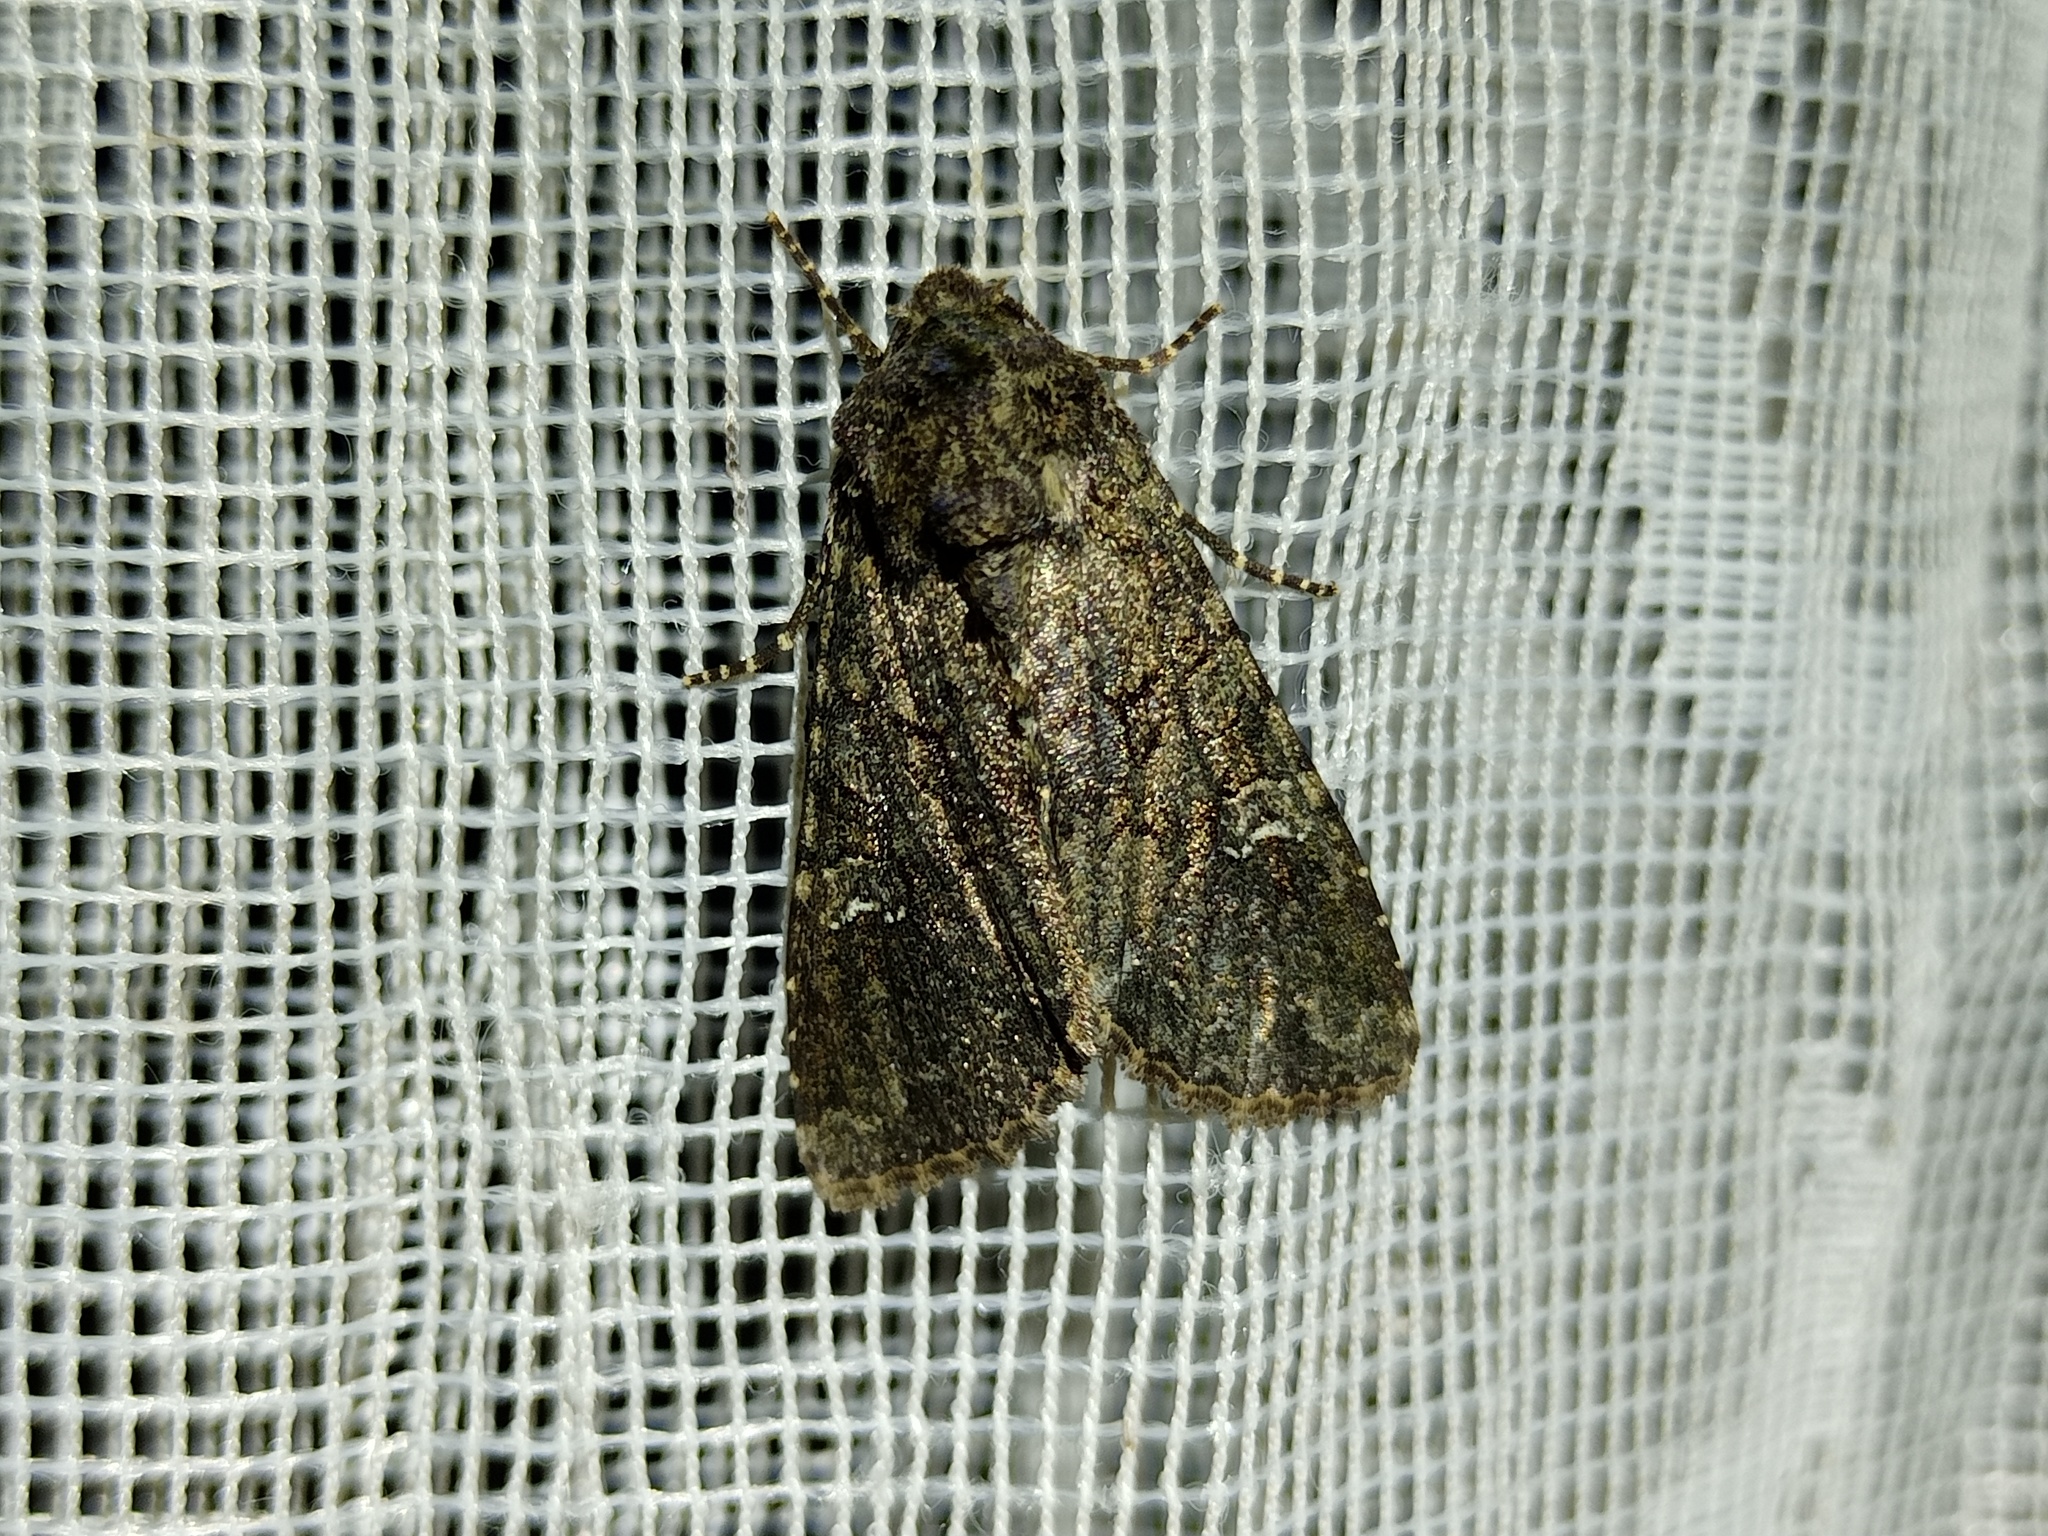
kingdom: Animalia
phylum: Arthropoda
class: Insecta
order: Lepidoptera
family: Noctuidae
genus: Mamestra
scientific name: Mamestra brassicae
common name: Cabbage moth
